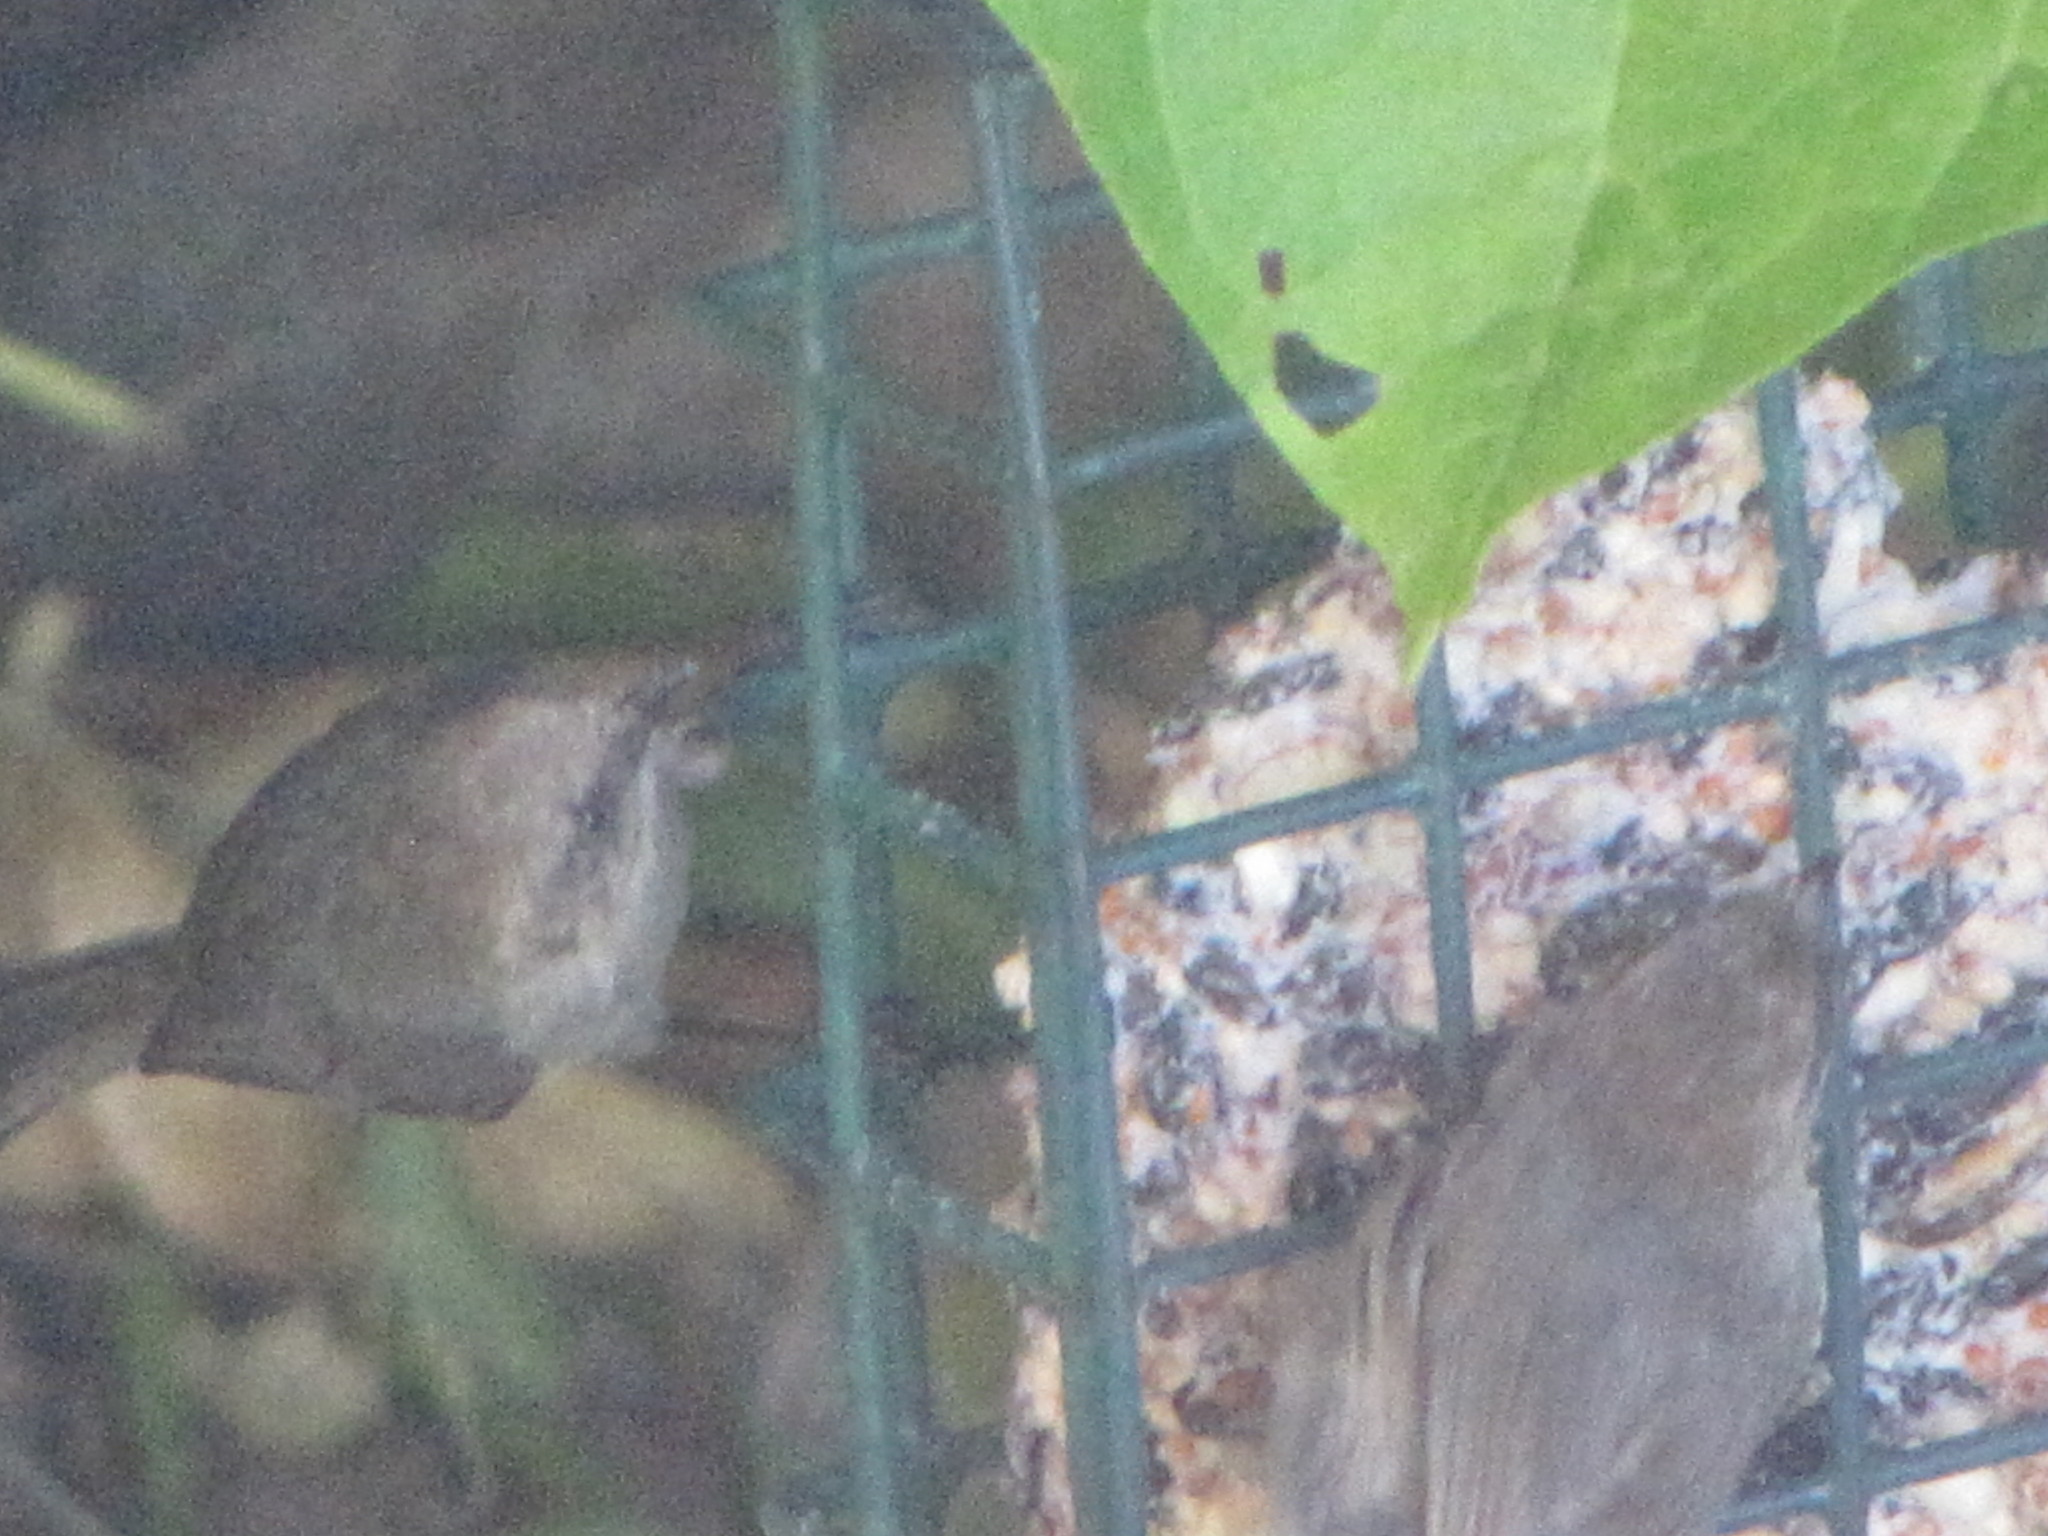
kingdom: Animalia
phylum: Chordata
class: Aves
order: Passeriformes
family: Aegithalidae
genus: Psaltriparus
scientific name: Psaltriparus minimus
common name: American bushtit
